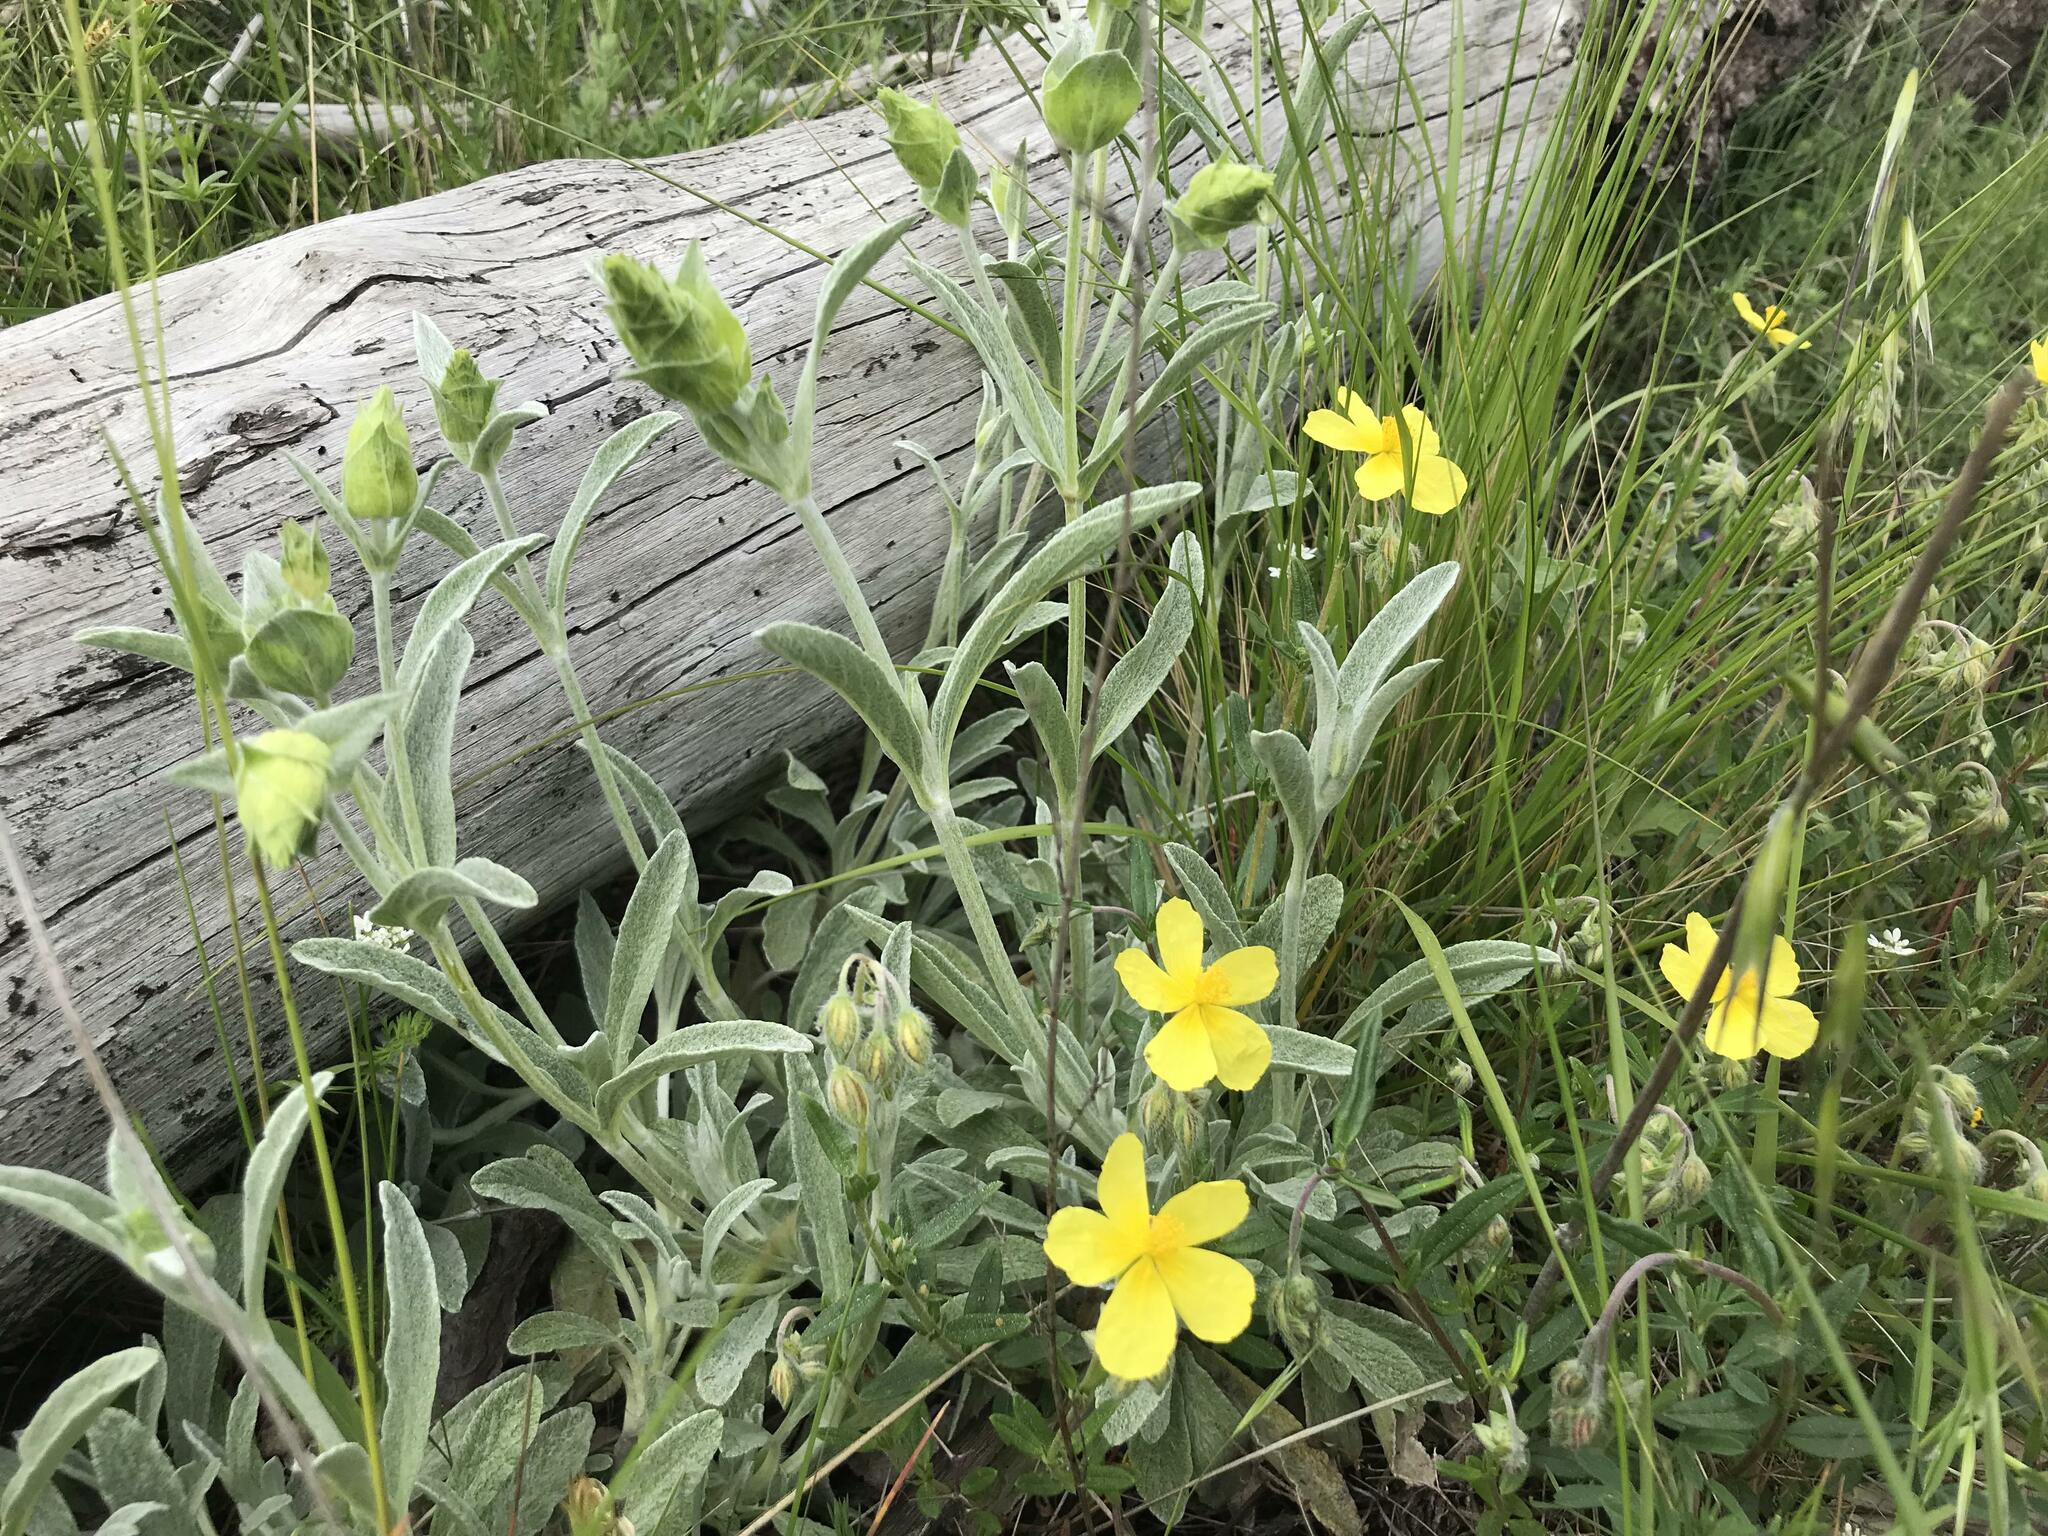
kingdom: Plantae
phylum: Tracheophyta
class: Magnoliopsida
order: Lamiales
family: Lamiaceae
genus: Sideritis
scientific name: Sideritis euxina
